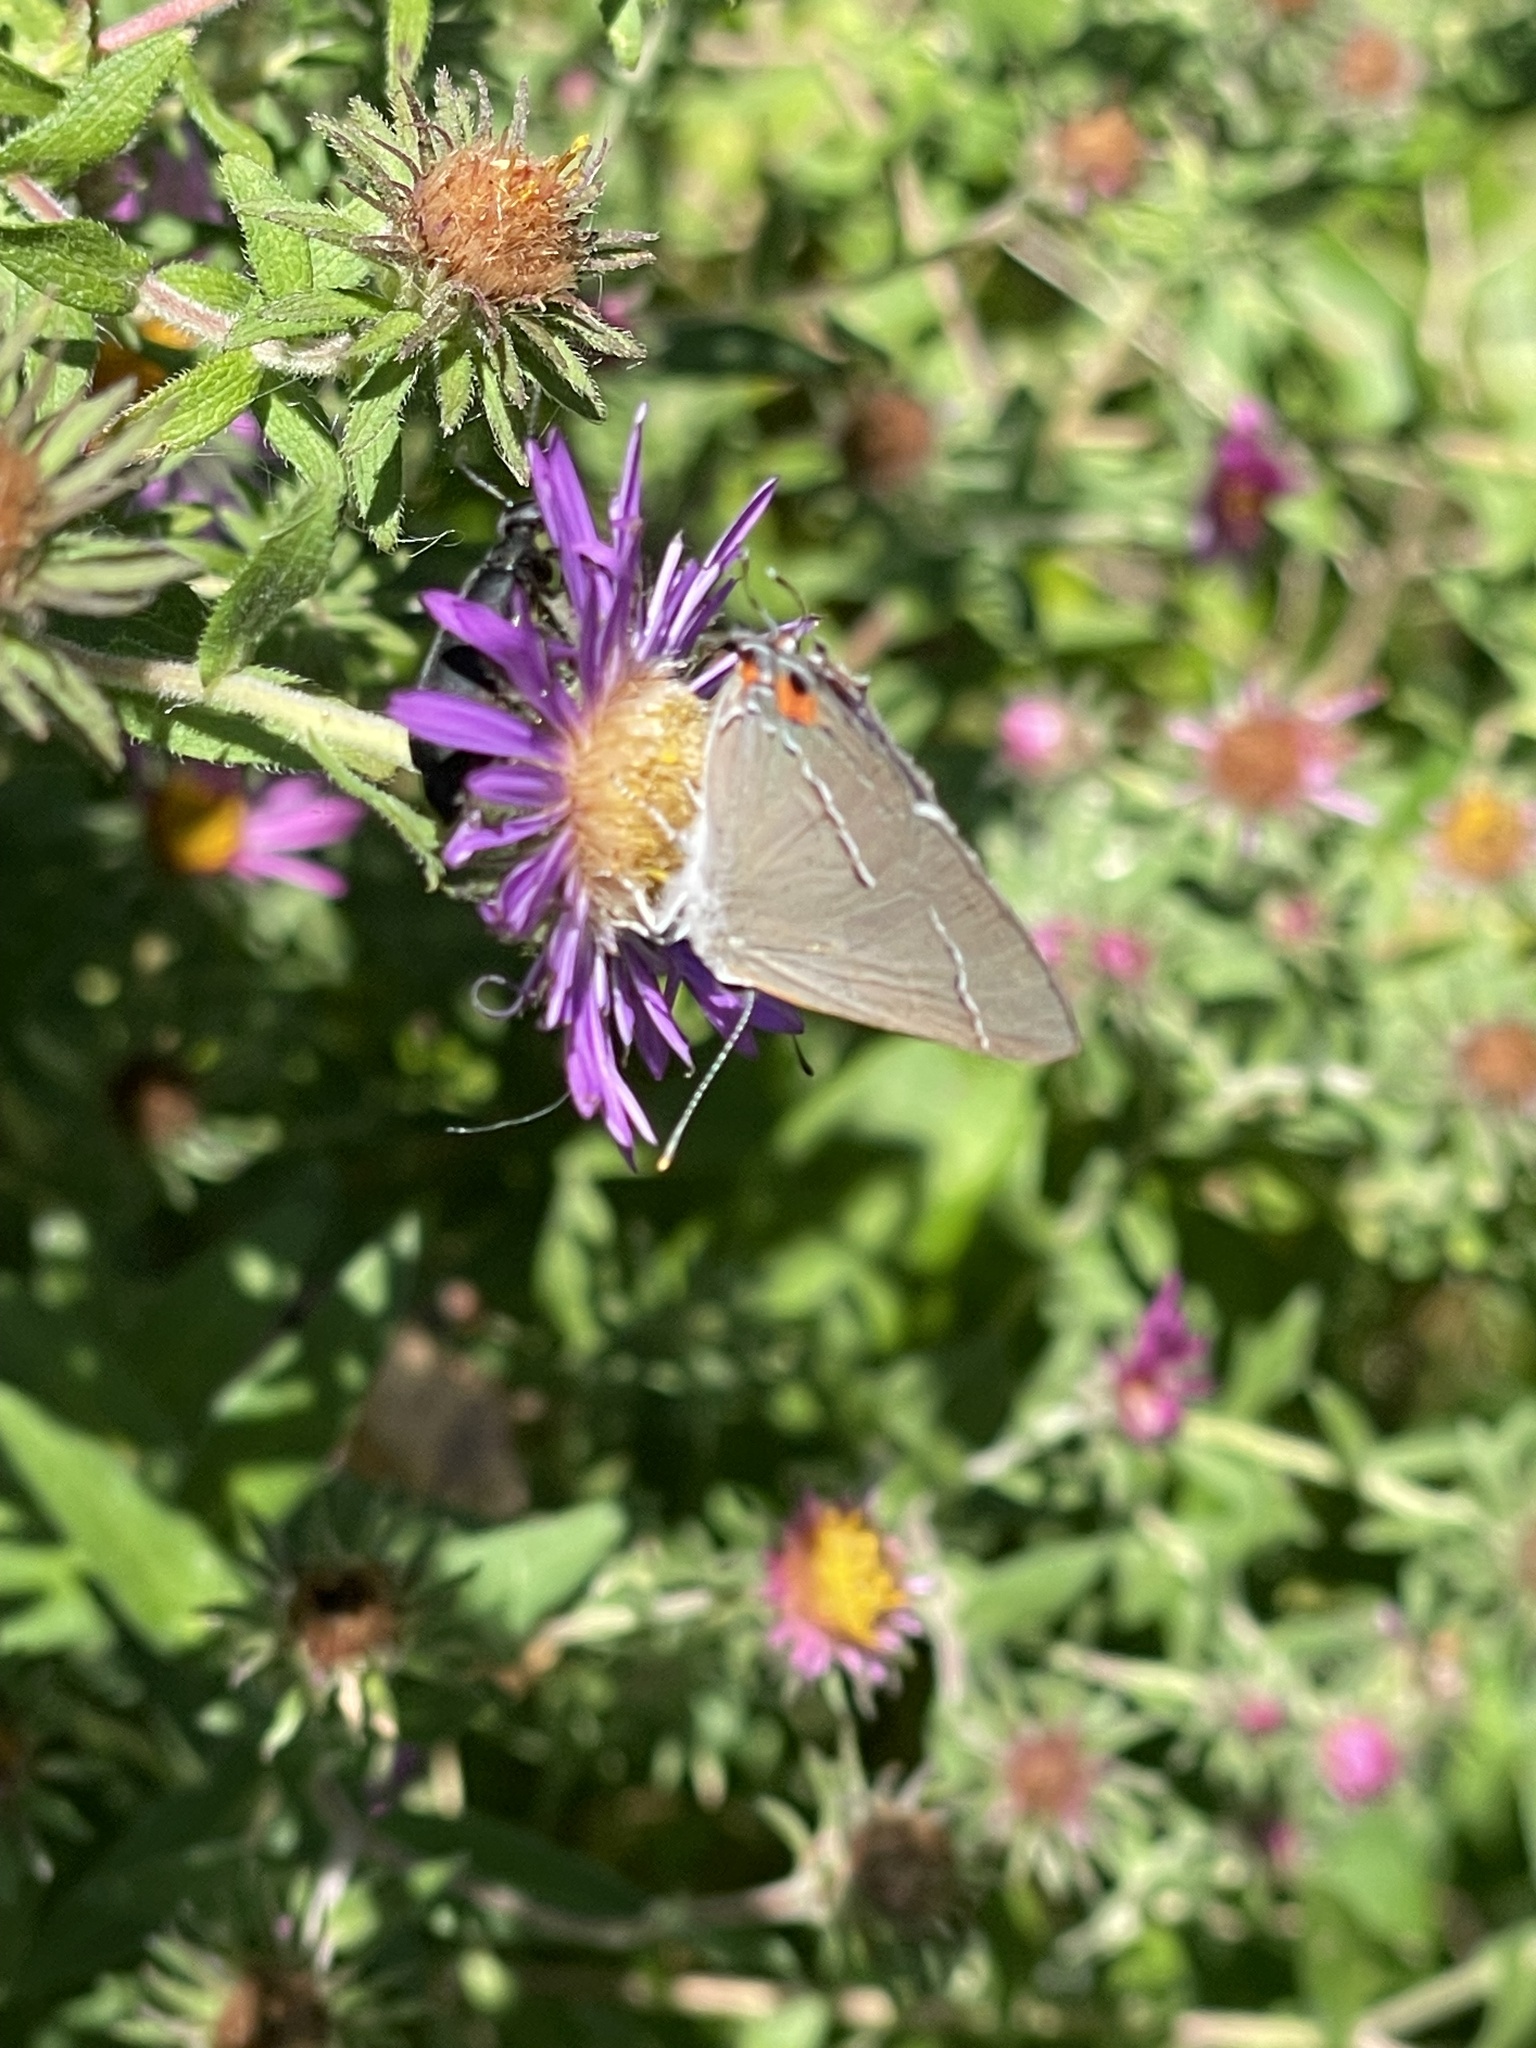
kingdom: Animalia
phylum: Arthropoda
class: Insecta
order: Lepidoptera
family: Lycaenidae
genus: Strymon
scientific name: Strymon melinus
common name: Gray hairstreak
